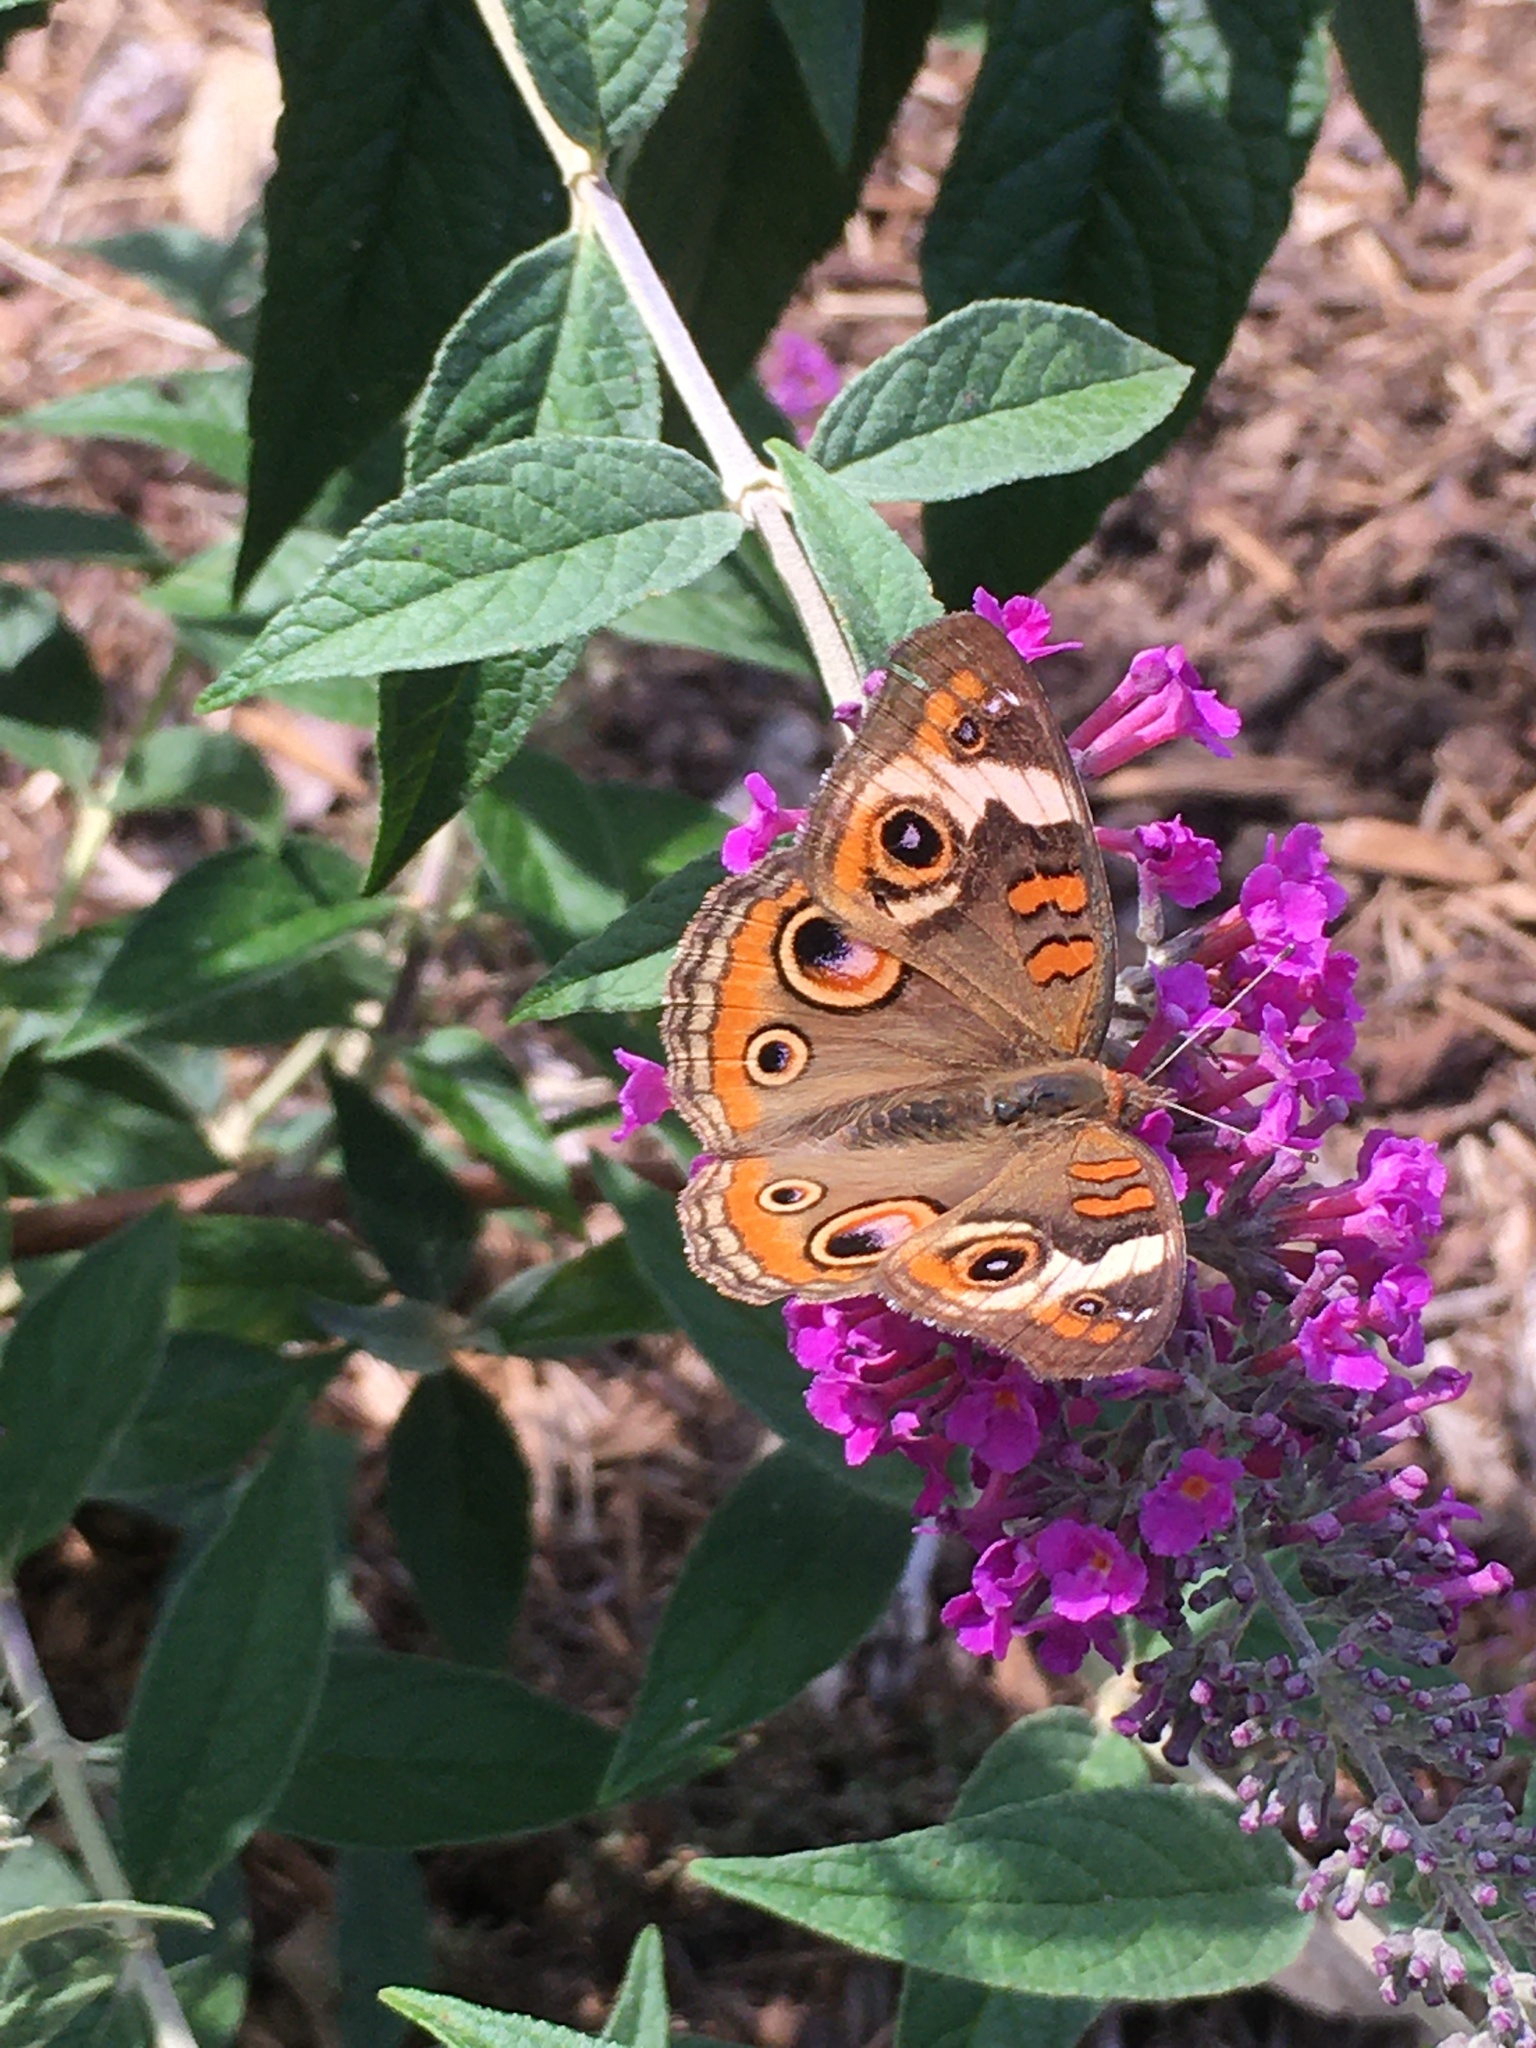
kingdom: Animalia
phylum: Arthropoda
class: Insecta
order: Lepidoptera
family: Nymphalidae
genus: Junonia
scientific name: Junonia coenia
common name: Common buckeye
